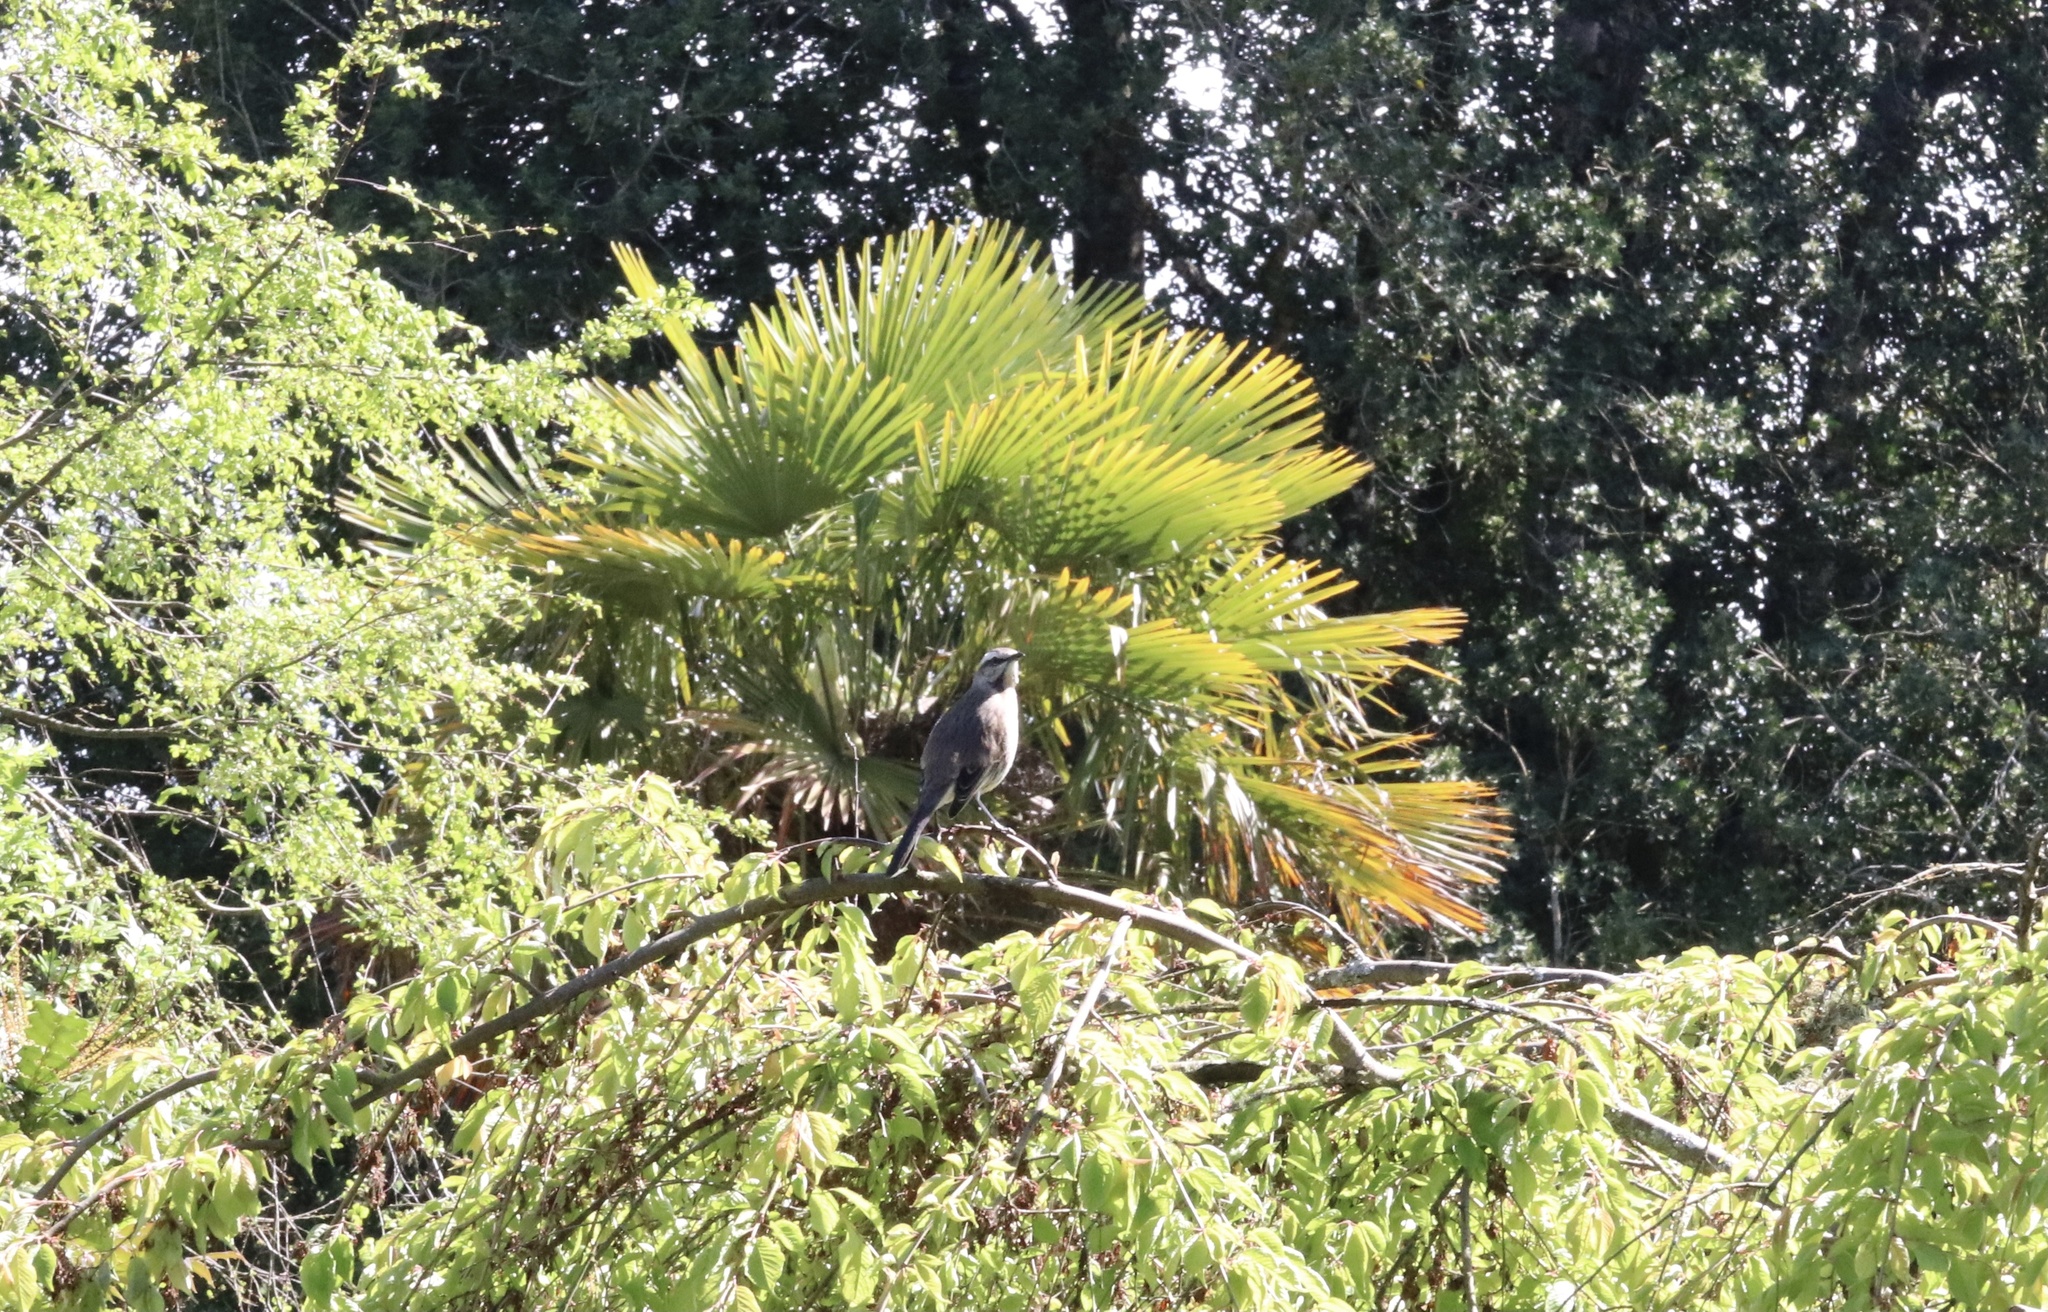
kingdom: Animalia
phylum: Chordata
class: Aves
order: Passeriformes
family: Mimidae
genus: Mimus
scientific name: Mimus thenca
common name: Chilean mockingbird
